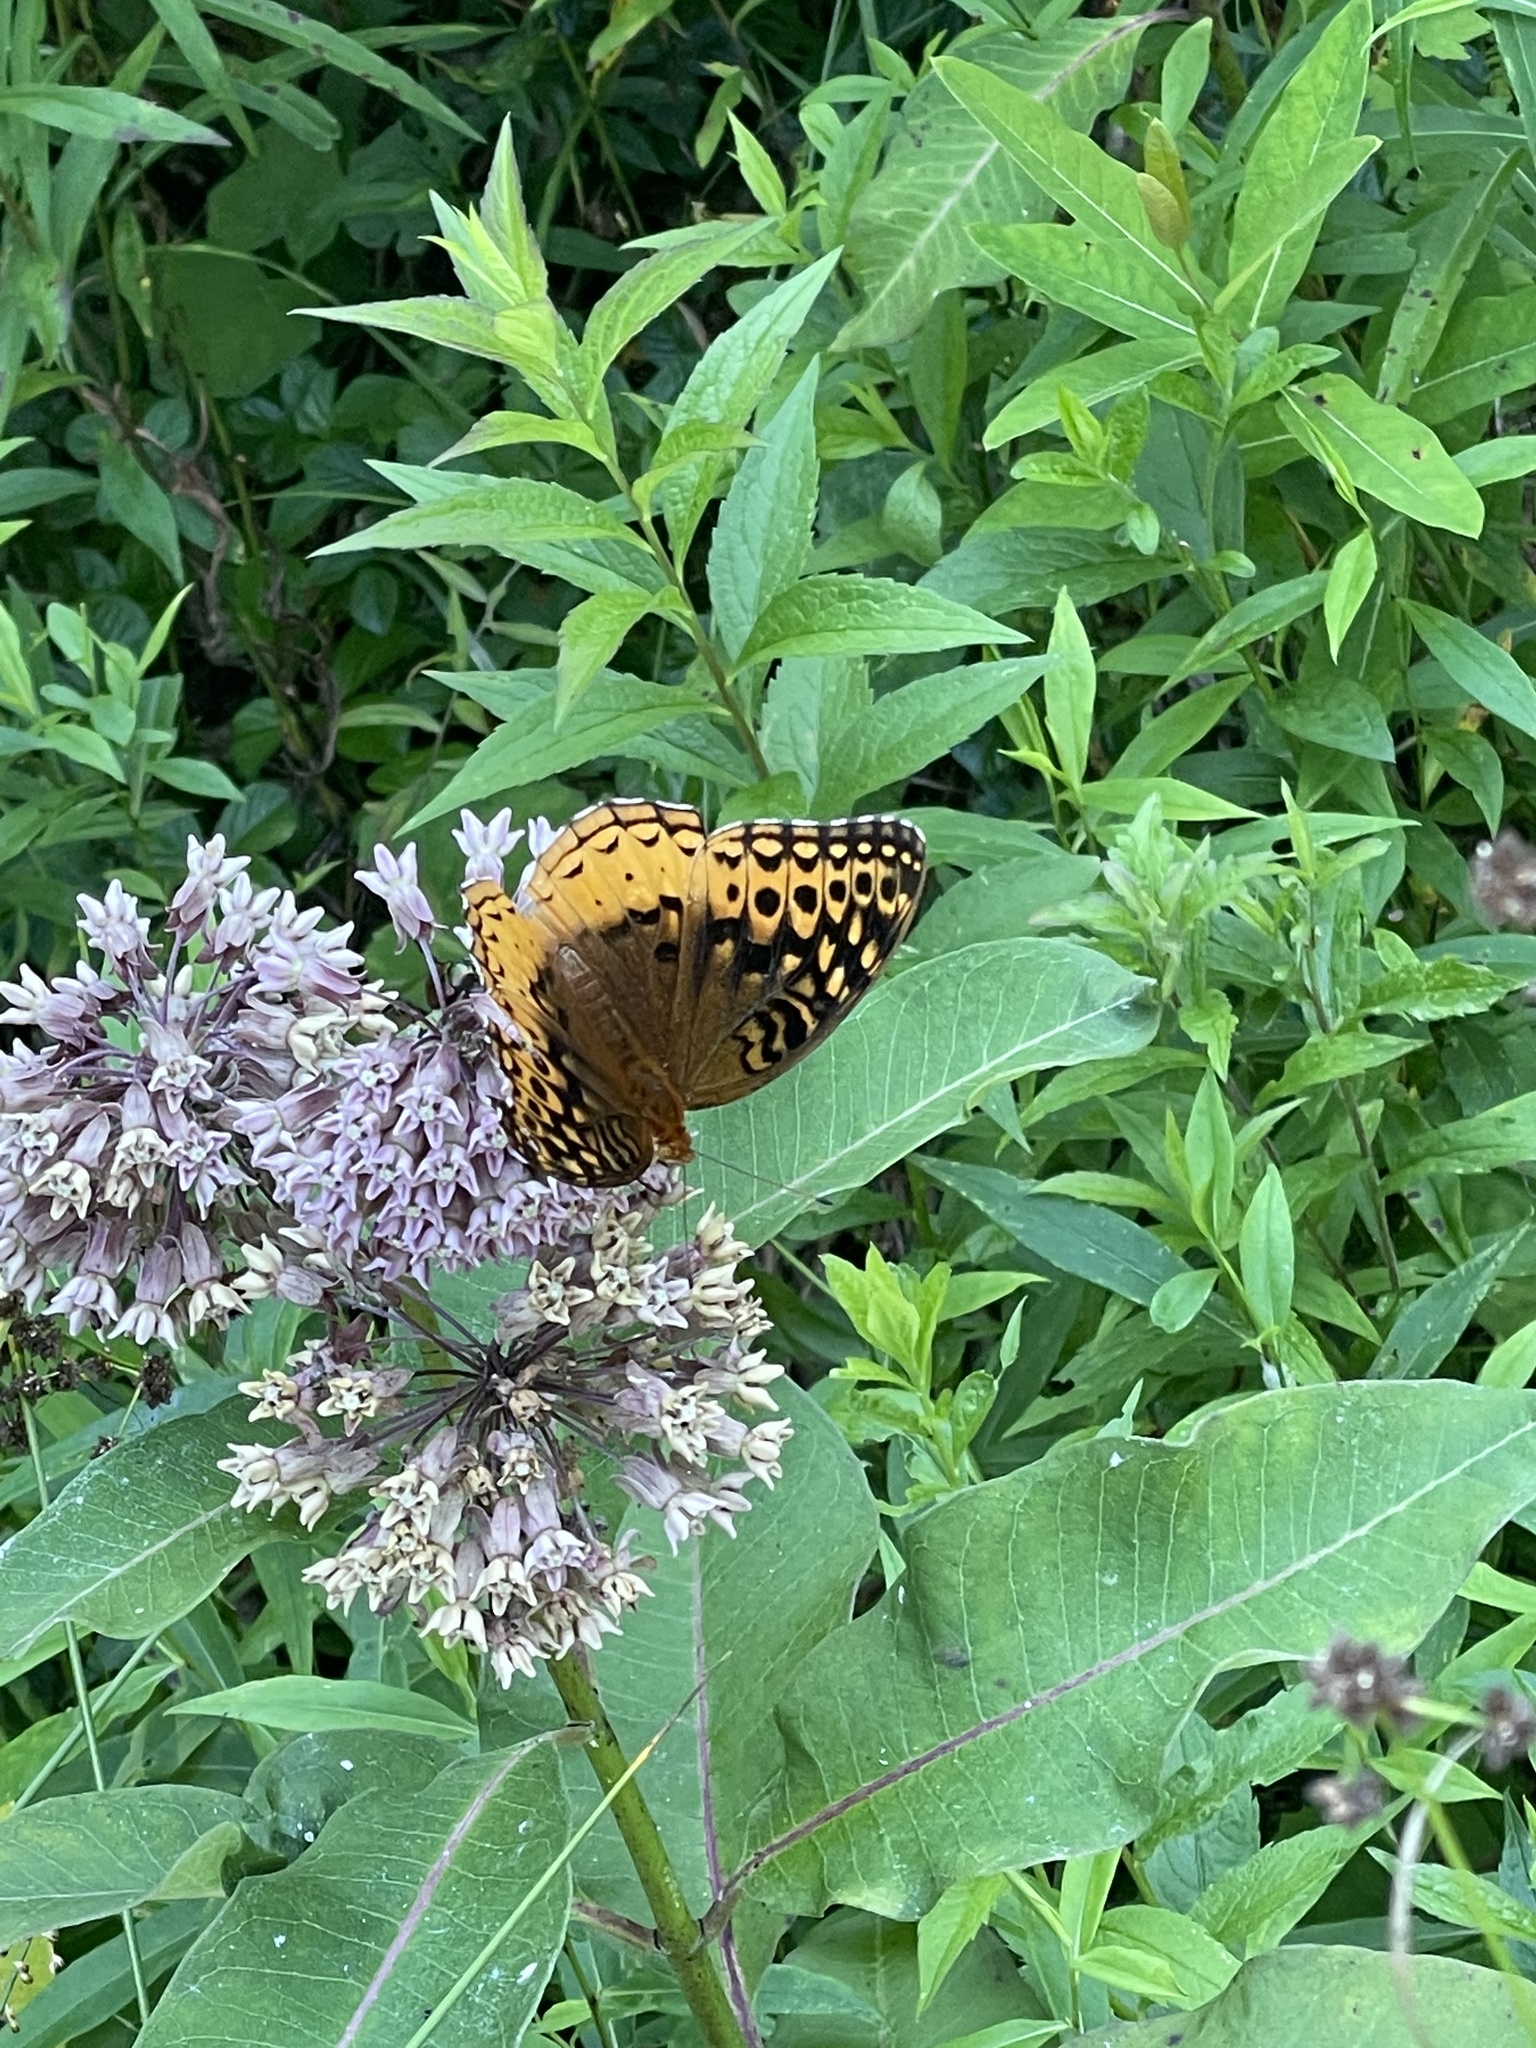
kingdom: Animalia
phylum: Arthropoda
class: Insecta
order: Lepidoptera
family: Nymphalidae
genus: Speyeria
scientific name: Speyeria cybele
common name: Great spangled fritillary
